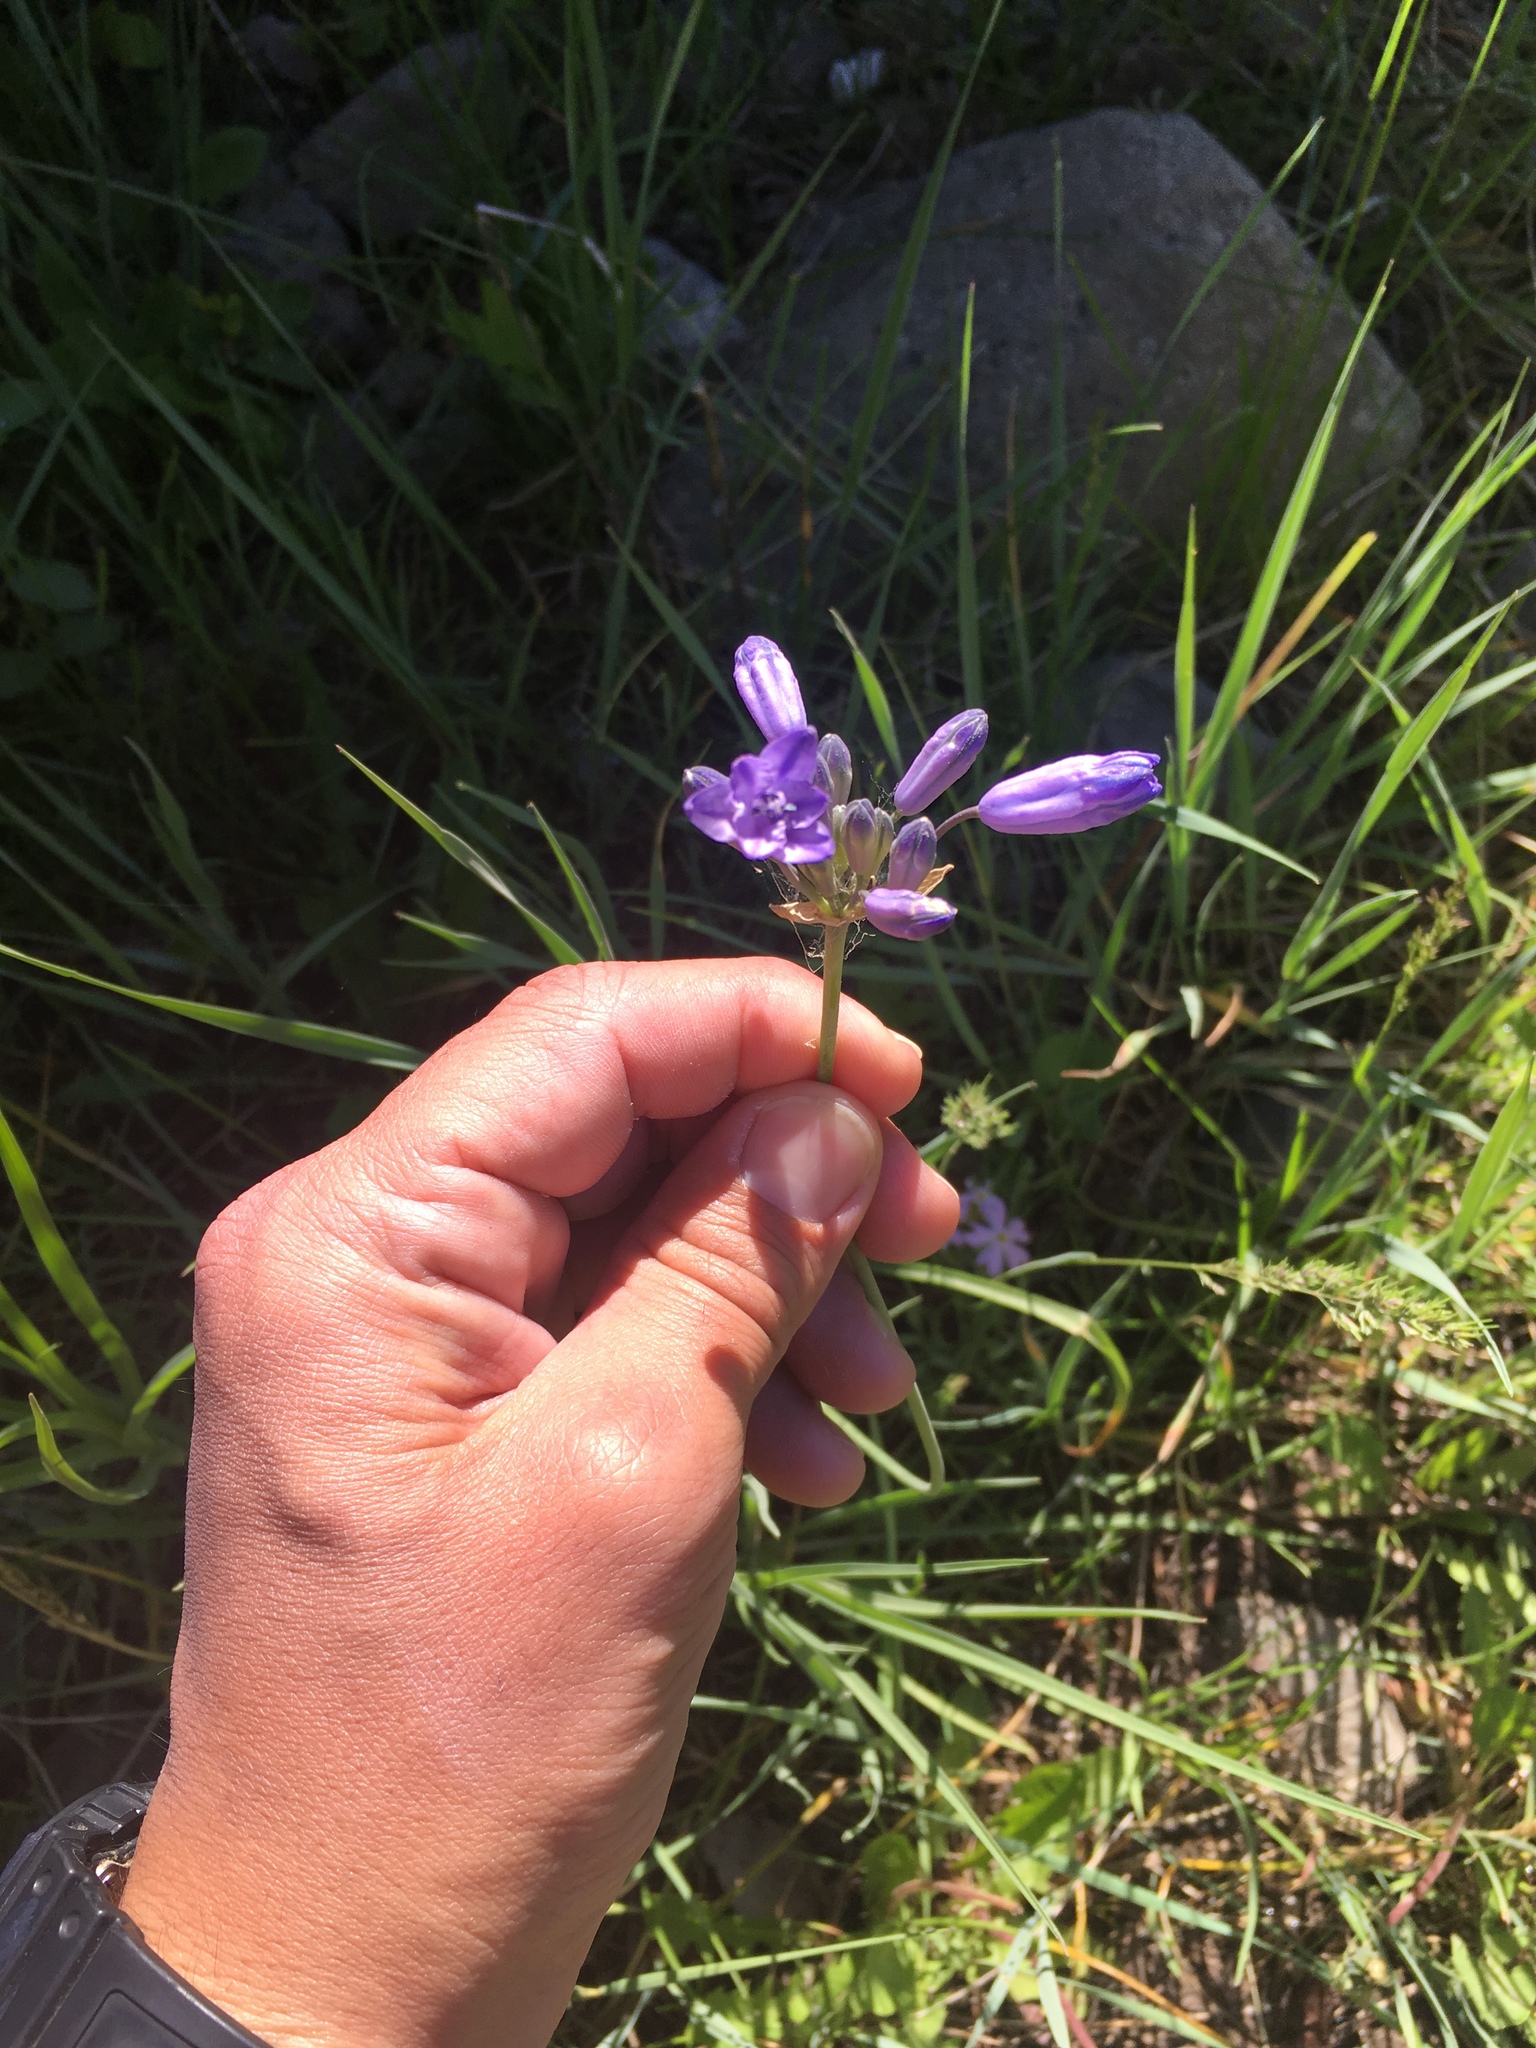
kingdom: Plantae
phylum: Tracheophyta
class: Liliopsida
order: Asparagales
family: Asparagaceae
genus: Triteleia
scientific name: Triteleia grandiflora
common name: Wild hyacinth
